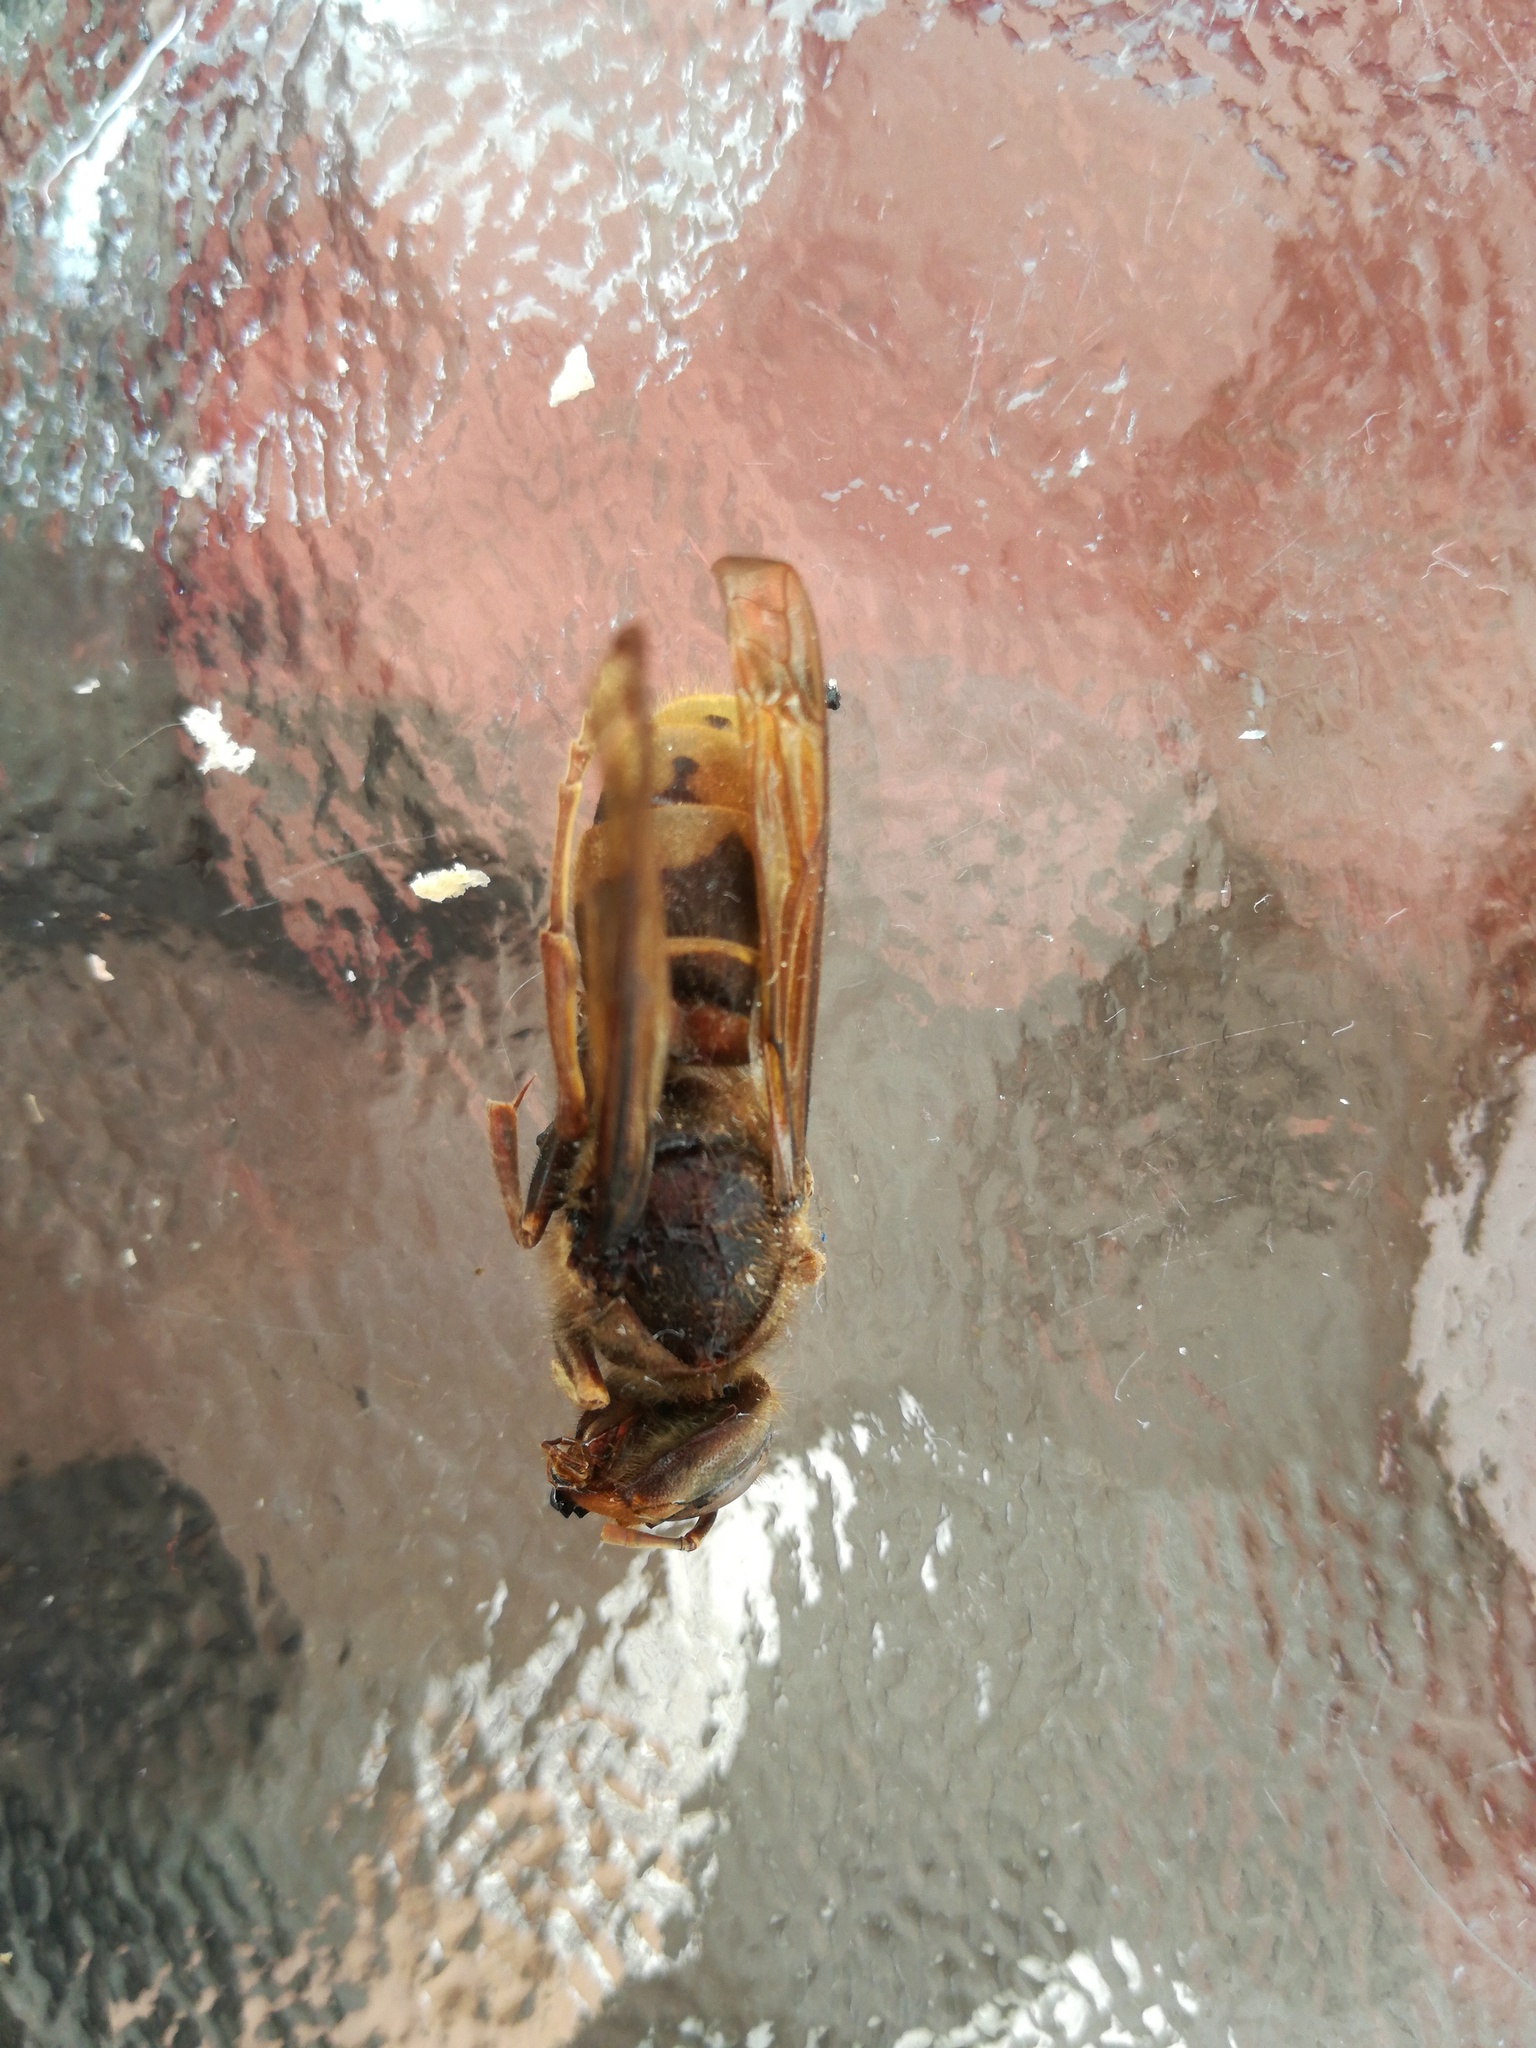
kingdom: Animalia
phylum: Arthropoda
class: Insecta
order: Hymenoptera
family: Vespidae
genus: Vespa
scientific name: Vespa crabro
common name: Hornet
